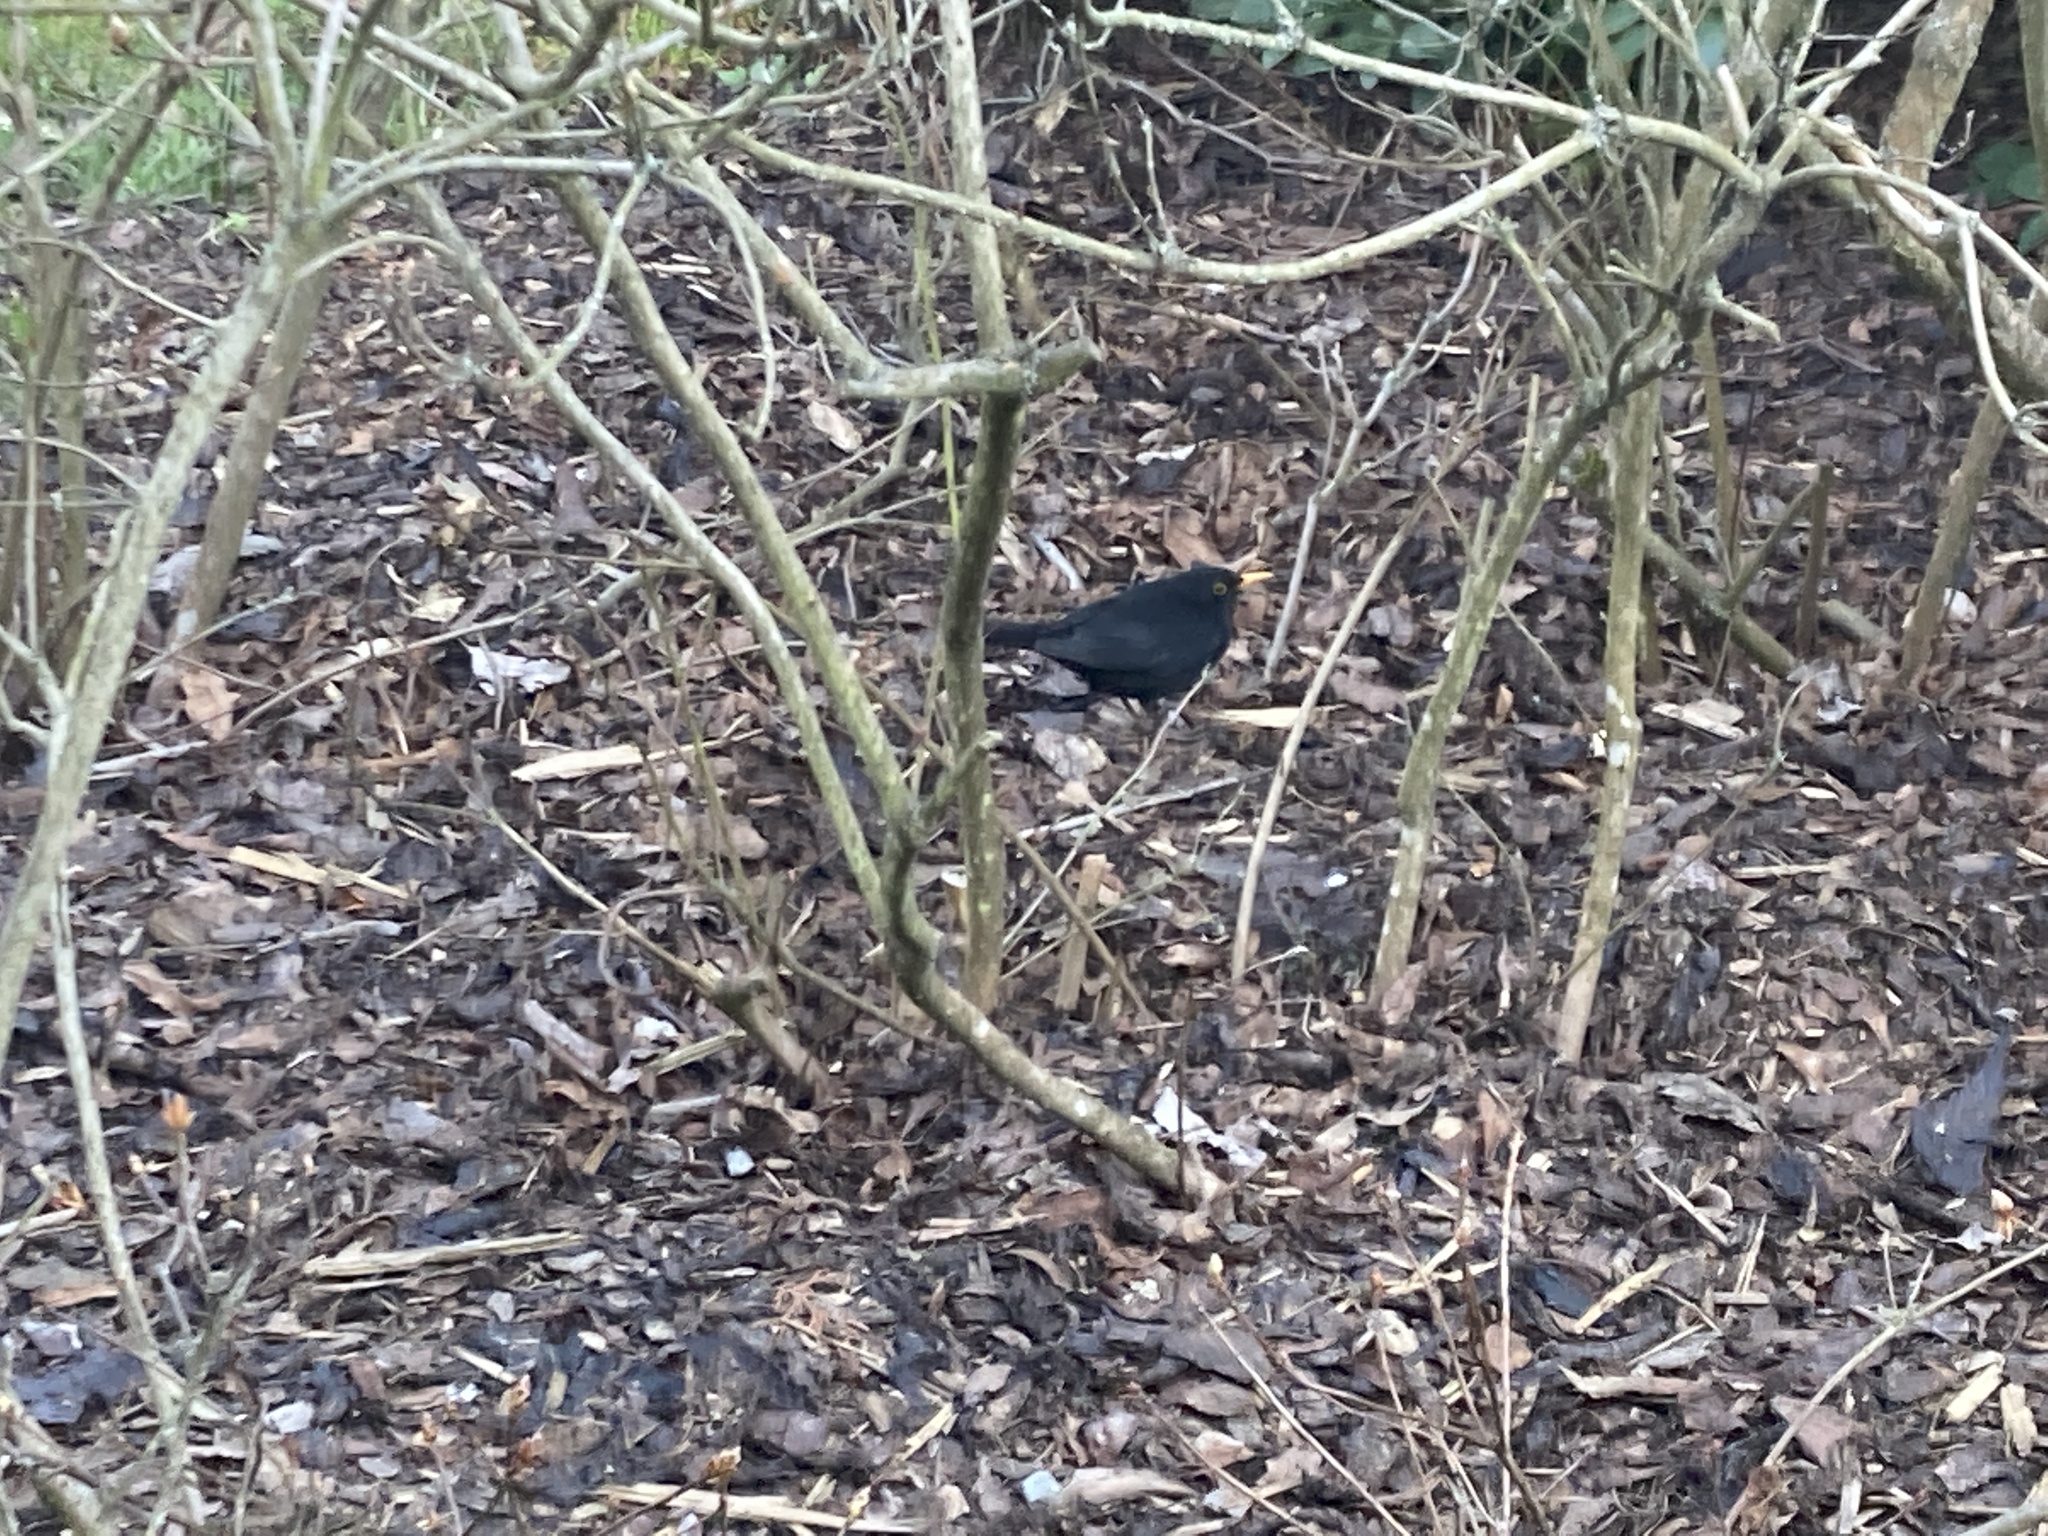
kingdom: Animalia
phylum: Chordata
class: Aves
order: Passeriformes
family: Turdidae
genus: Turdus
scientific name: Turdus merula
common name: Common blackbird
